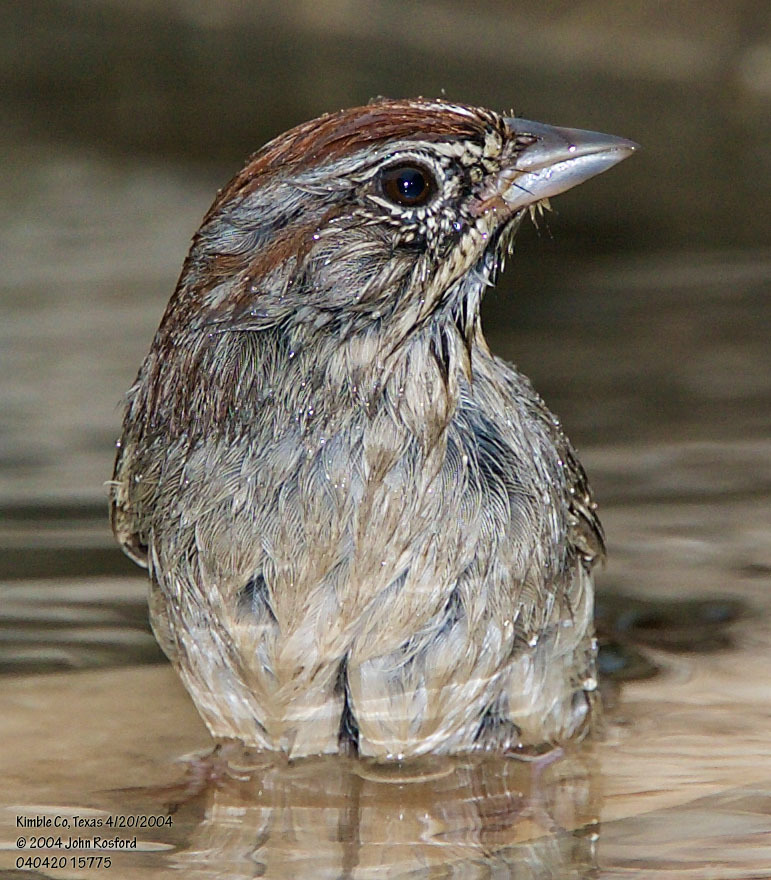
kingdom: Animalia
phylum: Chordata
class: Aves
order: Passeriformes
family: Passerellidae
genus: Aimophila
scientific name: Aimophila ruficeps
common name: Rufous-crowned sparrow
